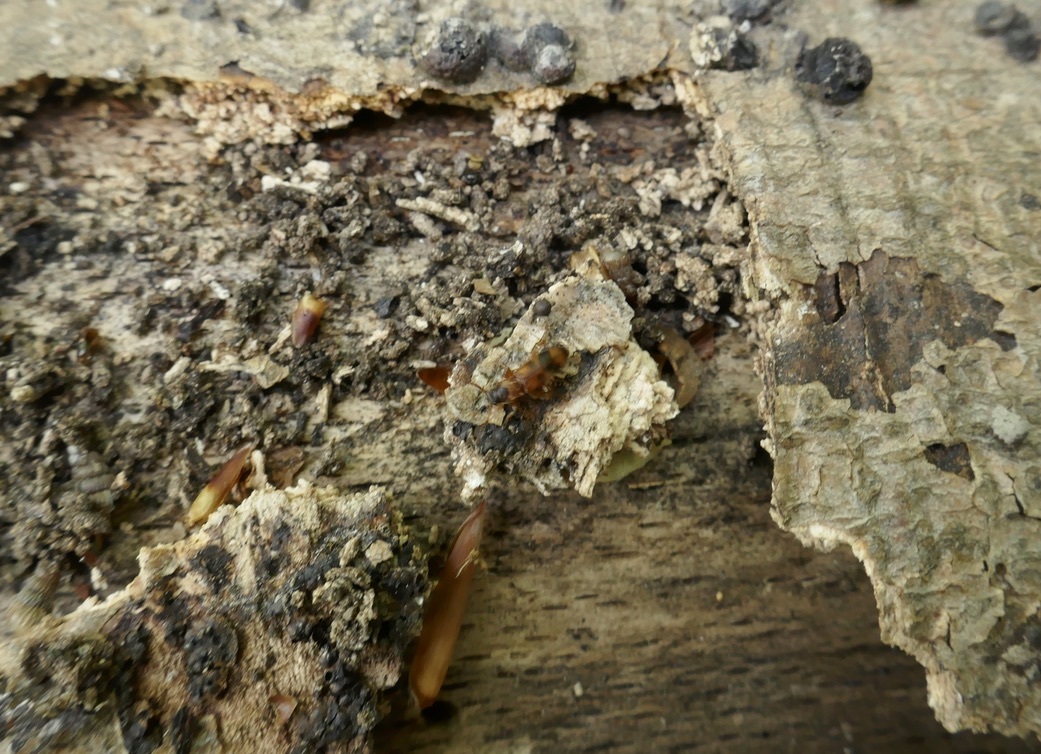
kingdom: Animalia
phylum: Arthropoda
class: Insecta
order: Coleoptera
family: Anthicidae
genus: Notoxus
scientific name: Notoxus bifasciatus
